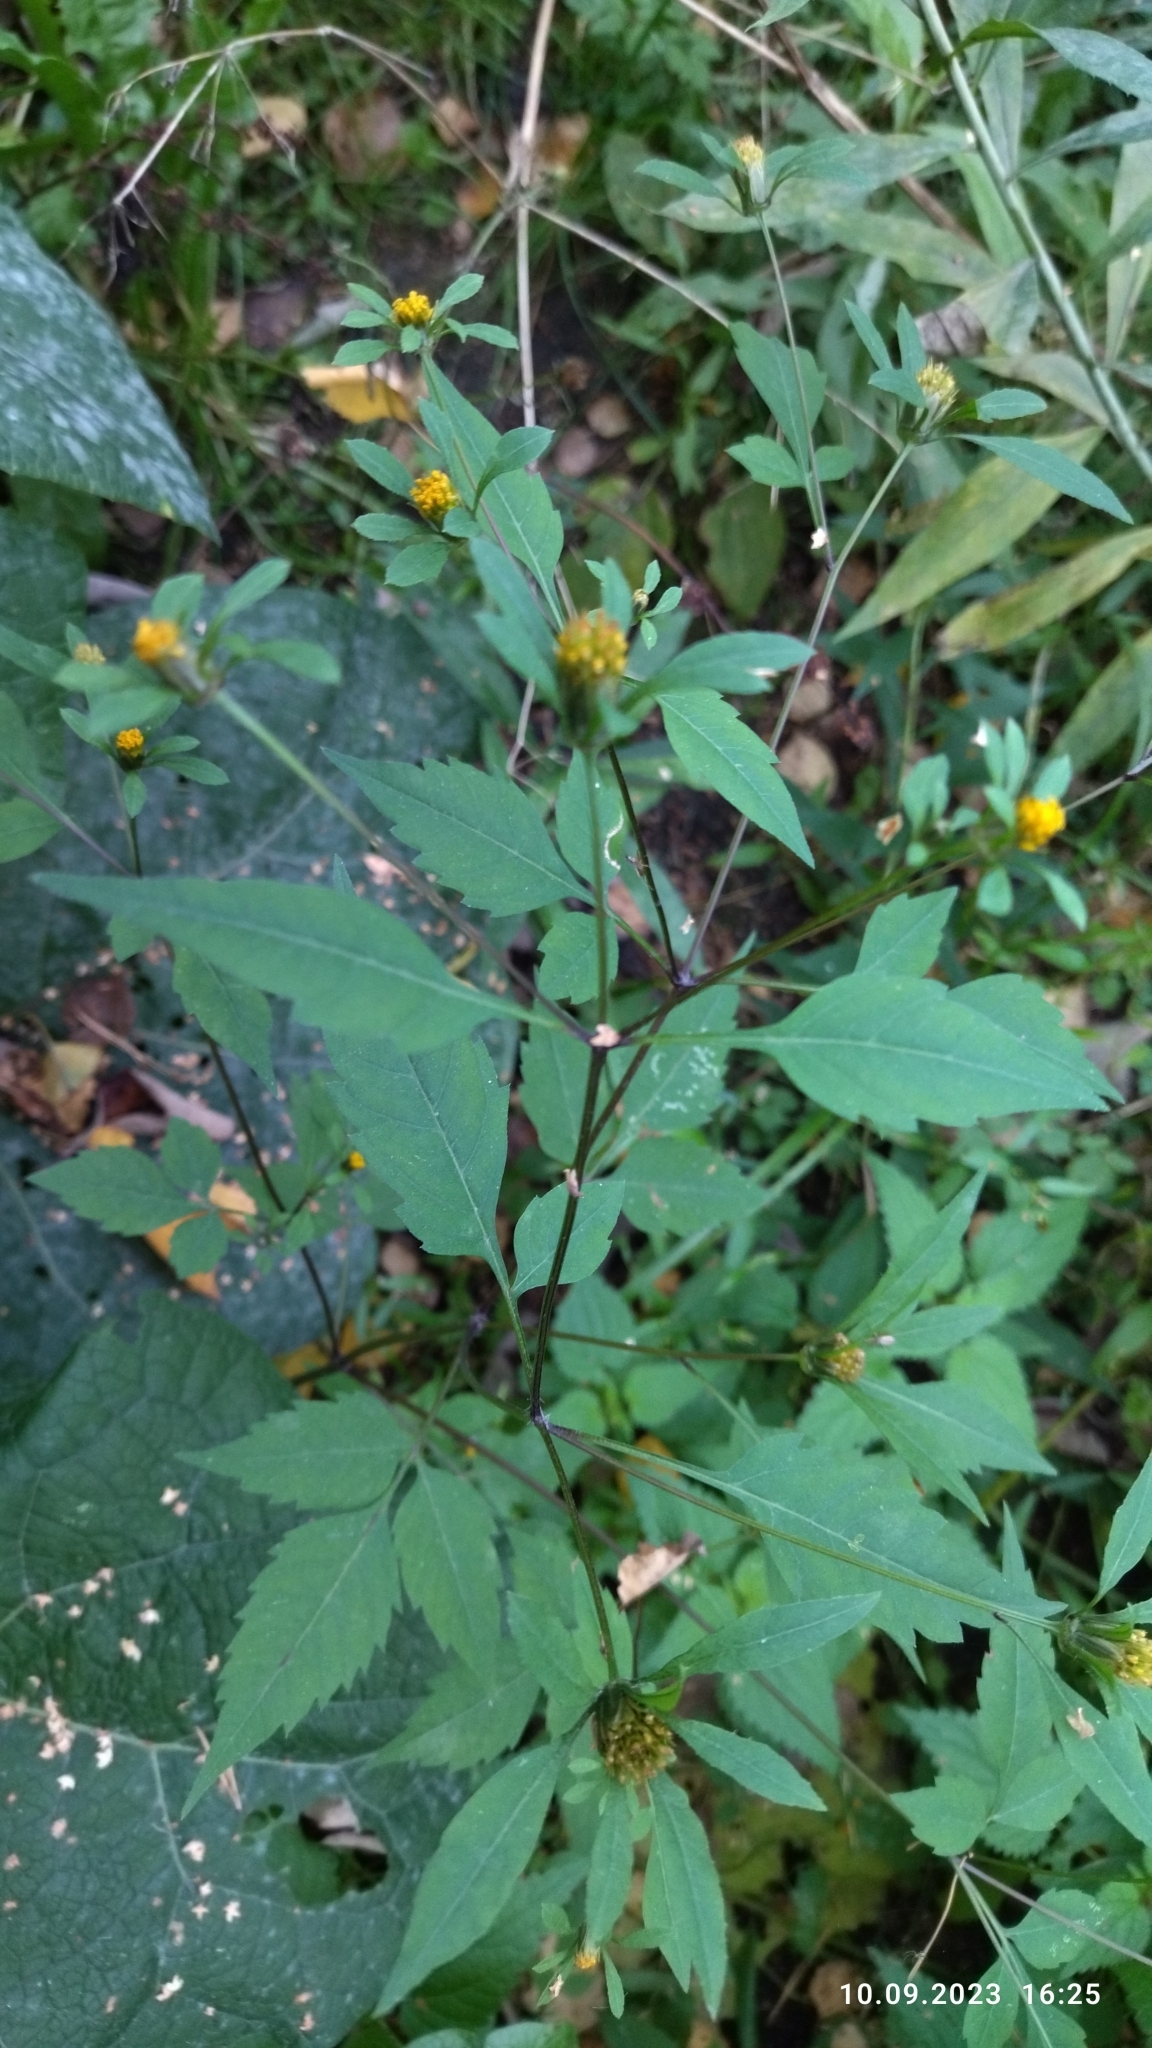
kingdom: Plantae
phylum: Tracheophyta
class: Magnoliopsida
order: Asterales
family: Asteraceae
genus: Bidens
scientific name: Bidens frondosa
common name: Beggarticks
